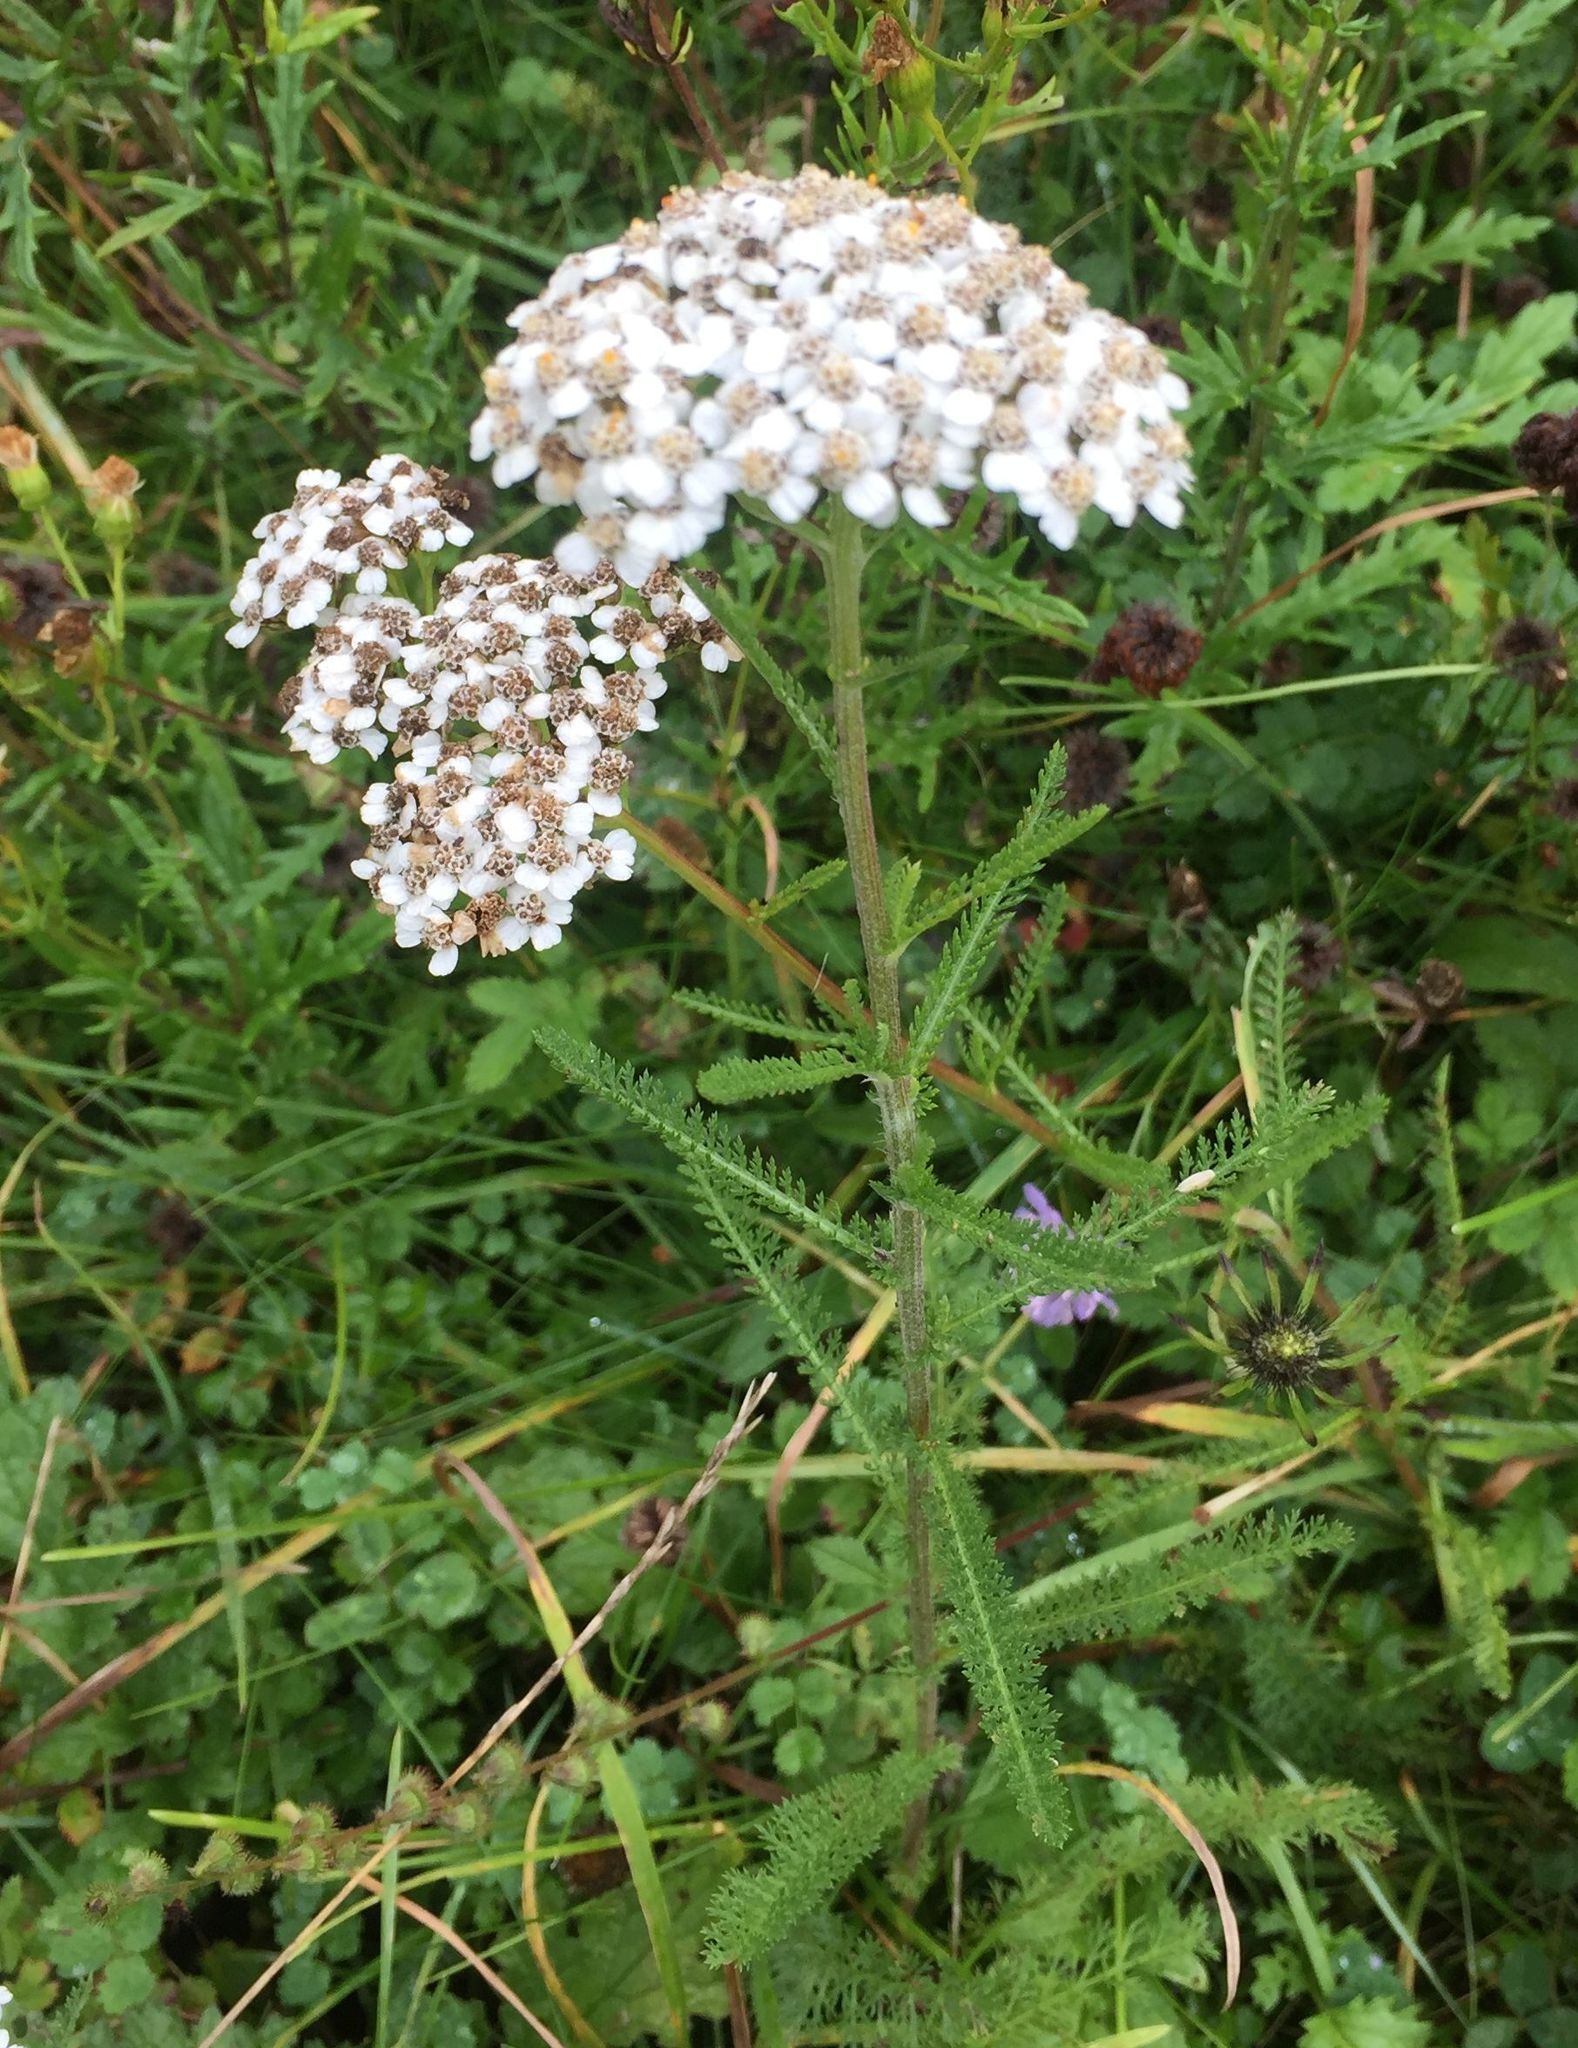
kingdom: Plantae
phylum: Tracheophyta
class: Magnoliopsida
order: Asterales
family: Asteraceae
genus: Achillea
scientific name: Achillea millefolium
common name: Yarrow
